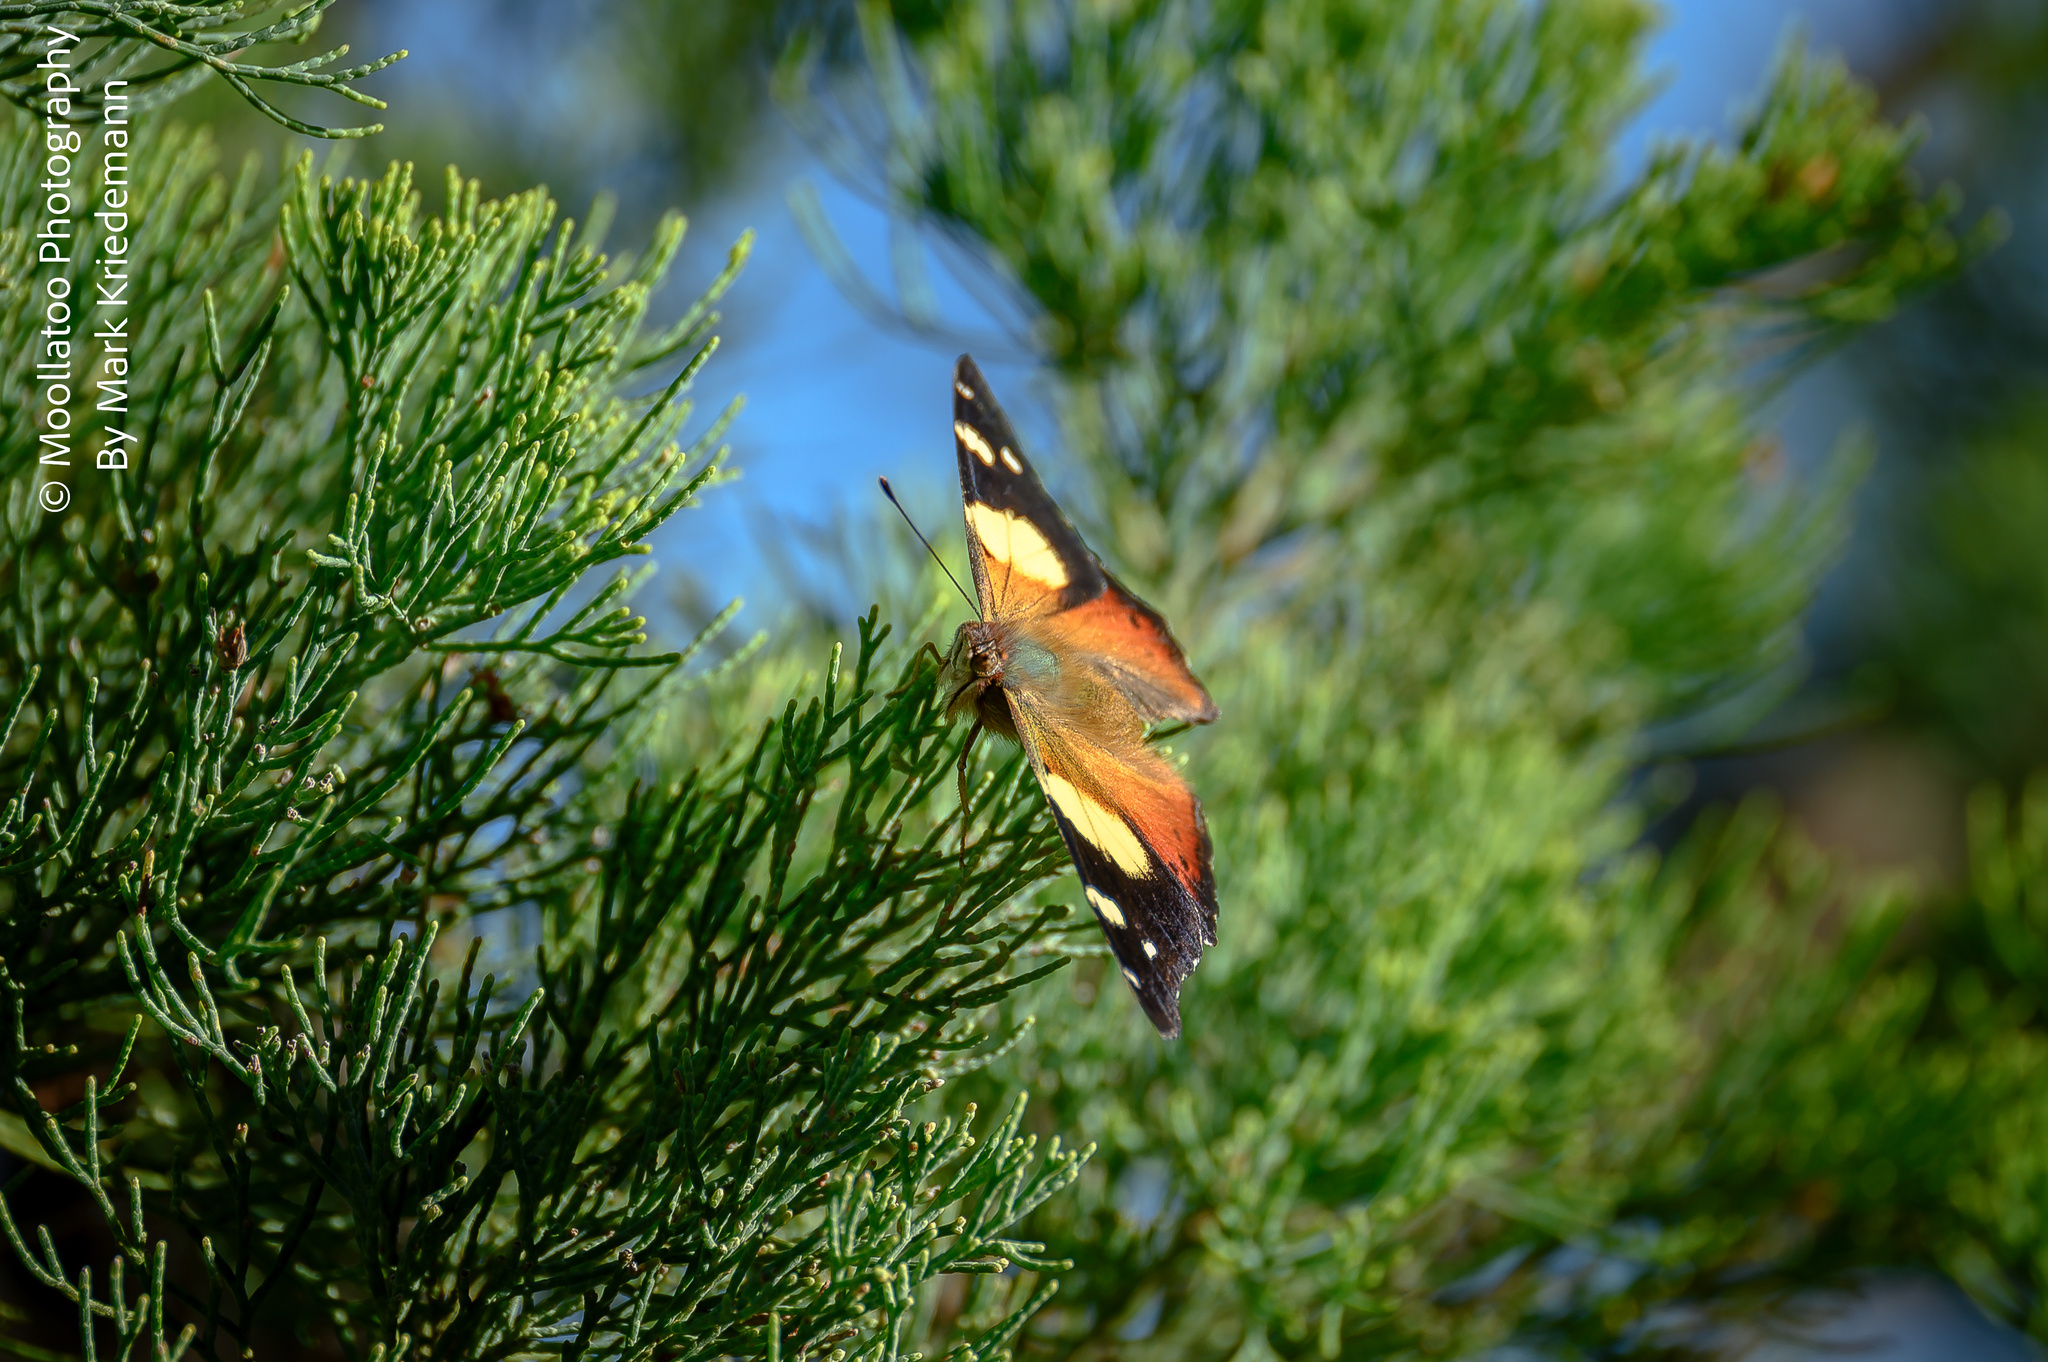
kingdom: Animalia
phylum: Arthropoda
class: Insecta
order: Lepidoptera
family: Nymphalidae
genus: Vanessa
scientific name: Vanessa itea
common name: Yellow admiral
